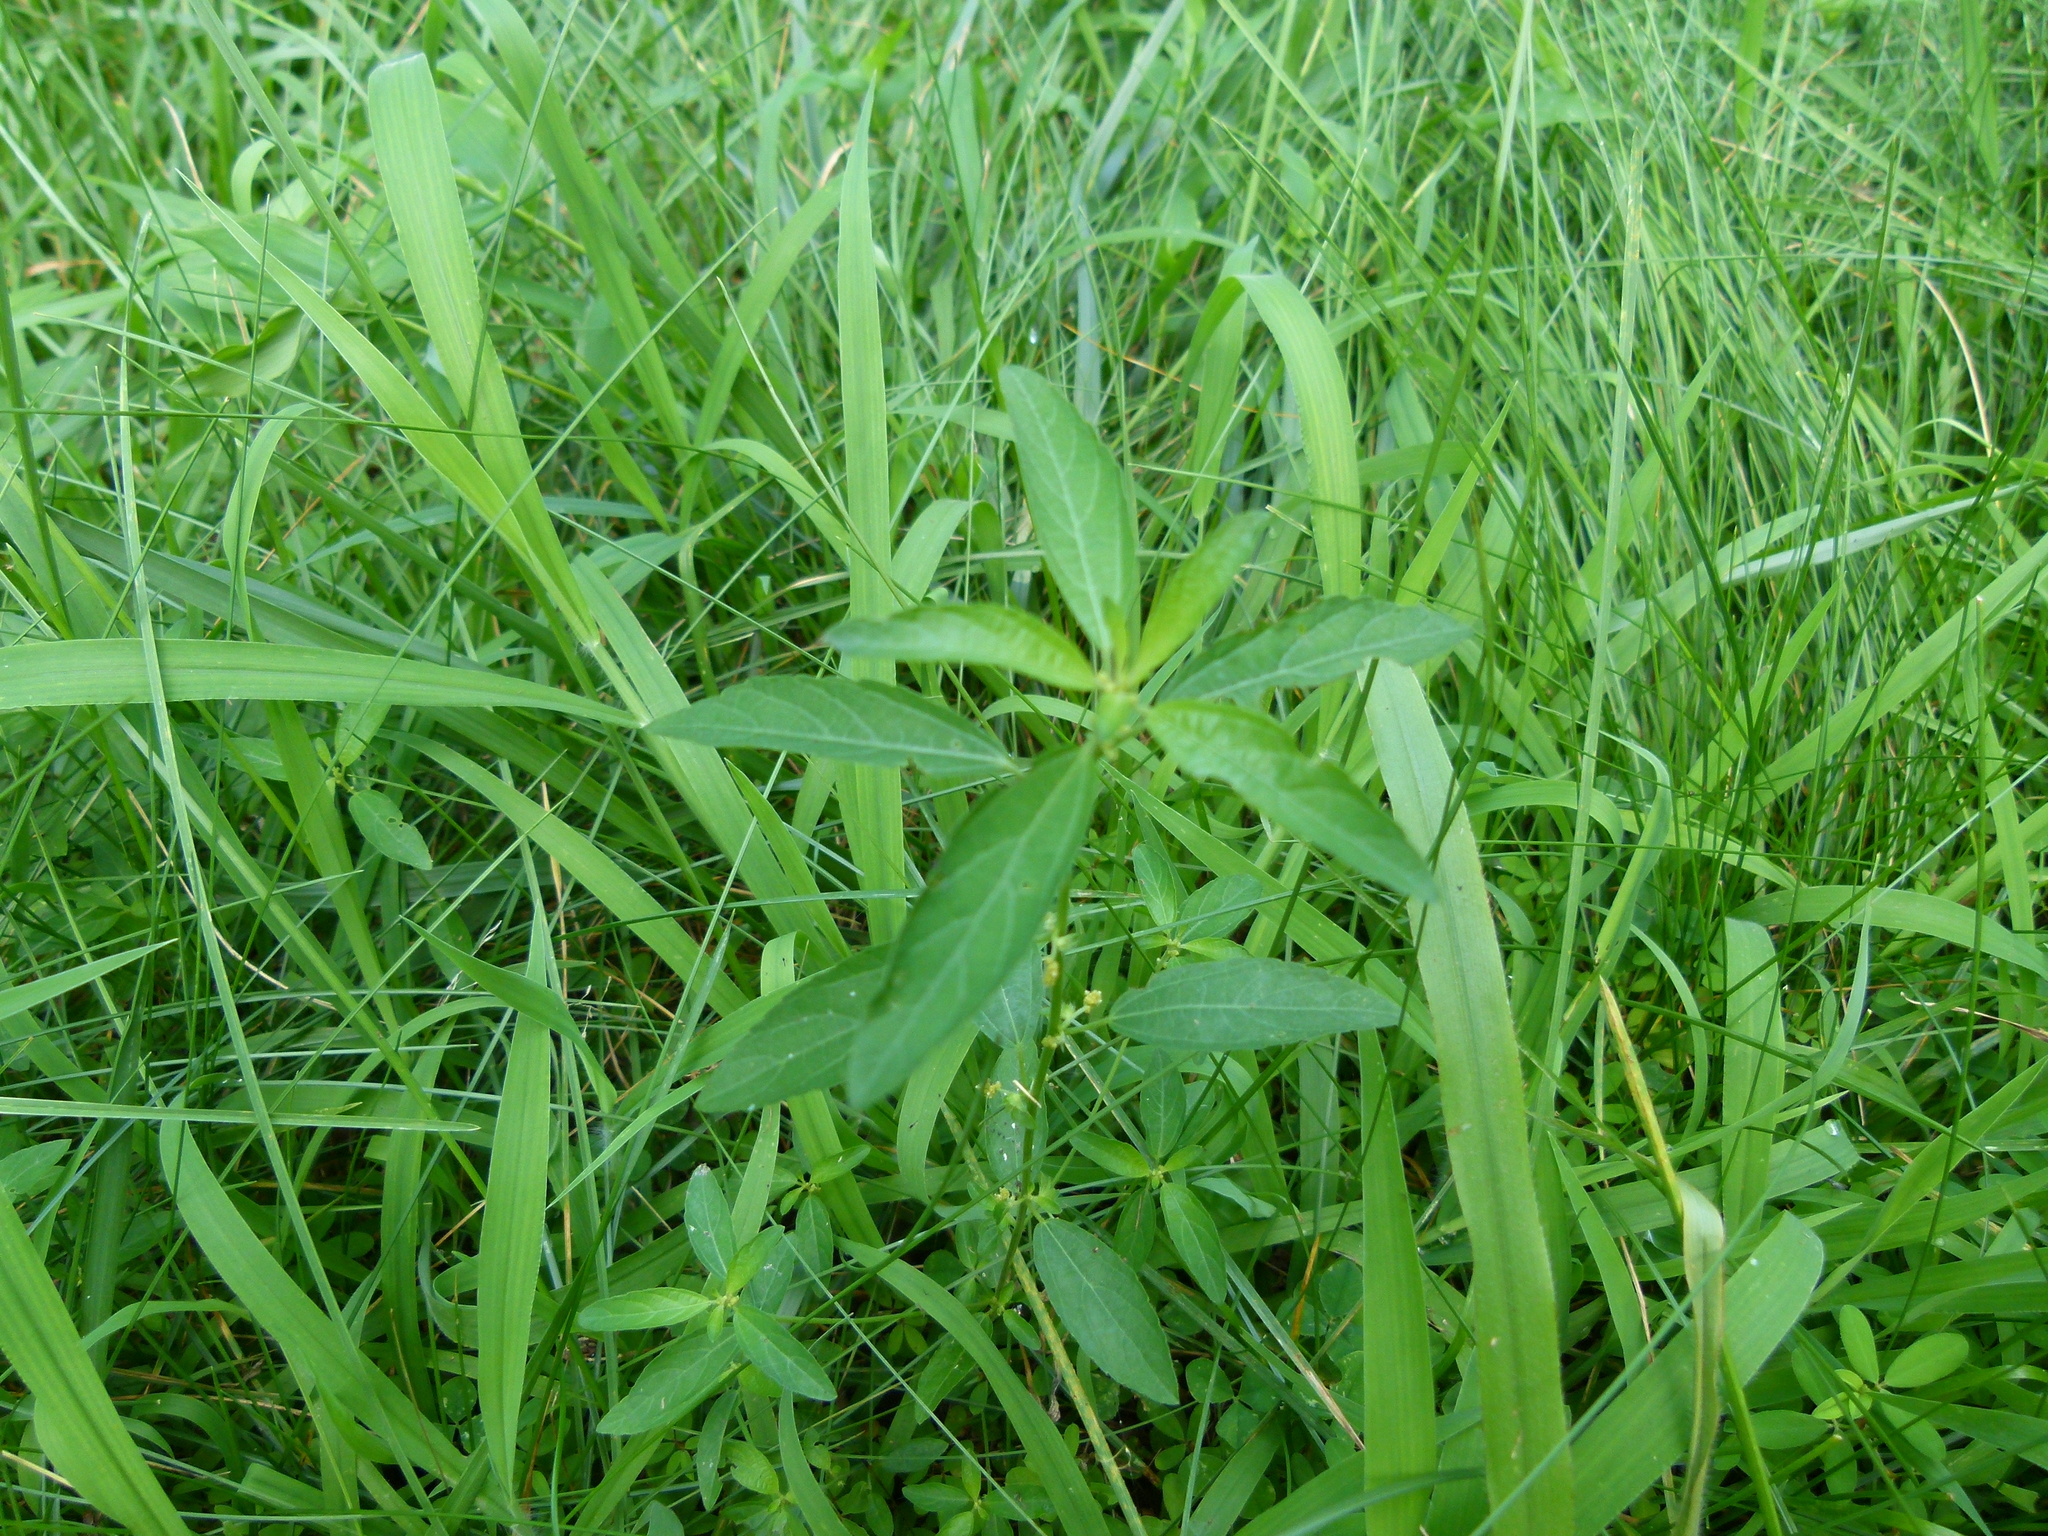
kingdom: Plantae
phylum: Tracheophyta
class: Magnoliopsida
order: Malpighiales
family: Euphorbiaceae
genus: Acalypha
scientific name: Acalypha gracilens
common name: Slender three-seeded mercury
